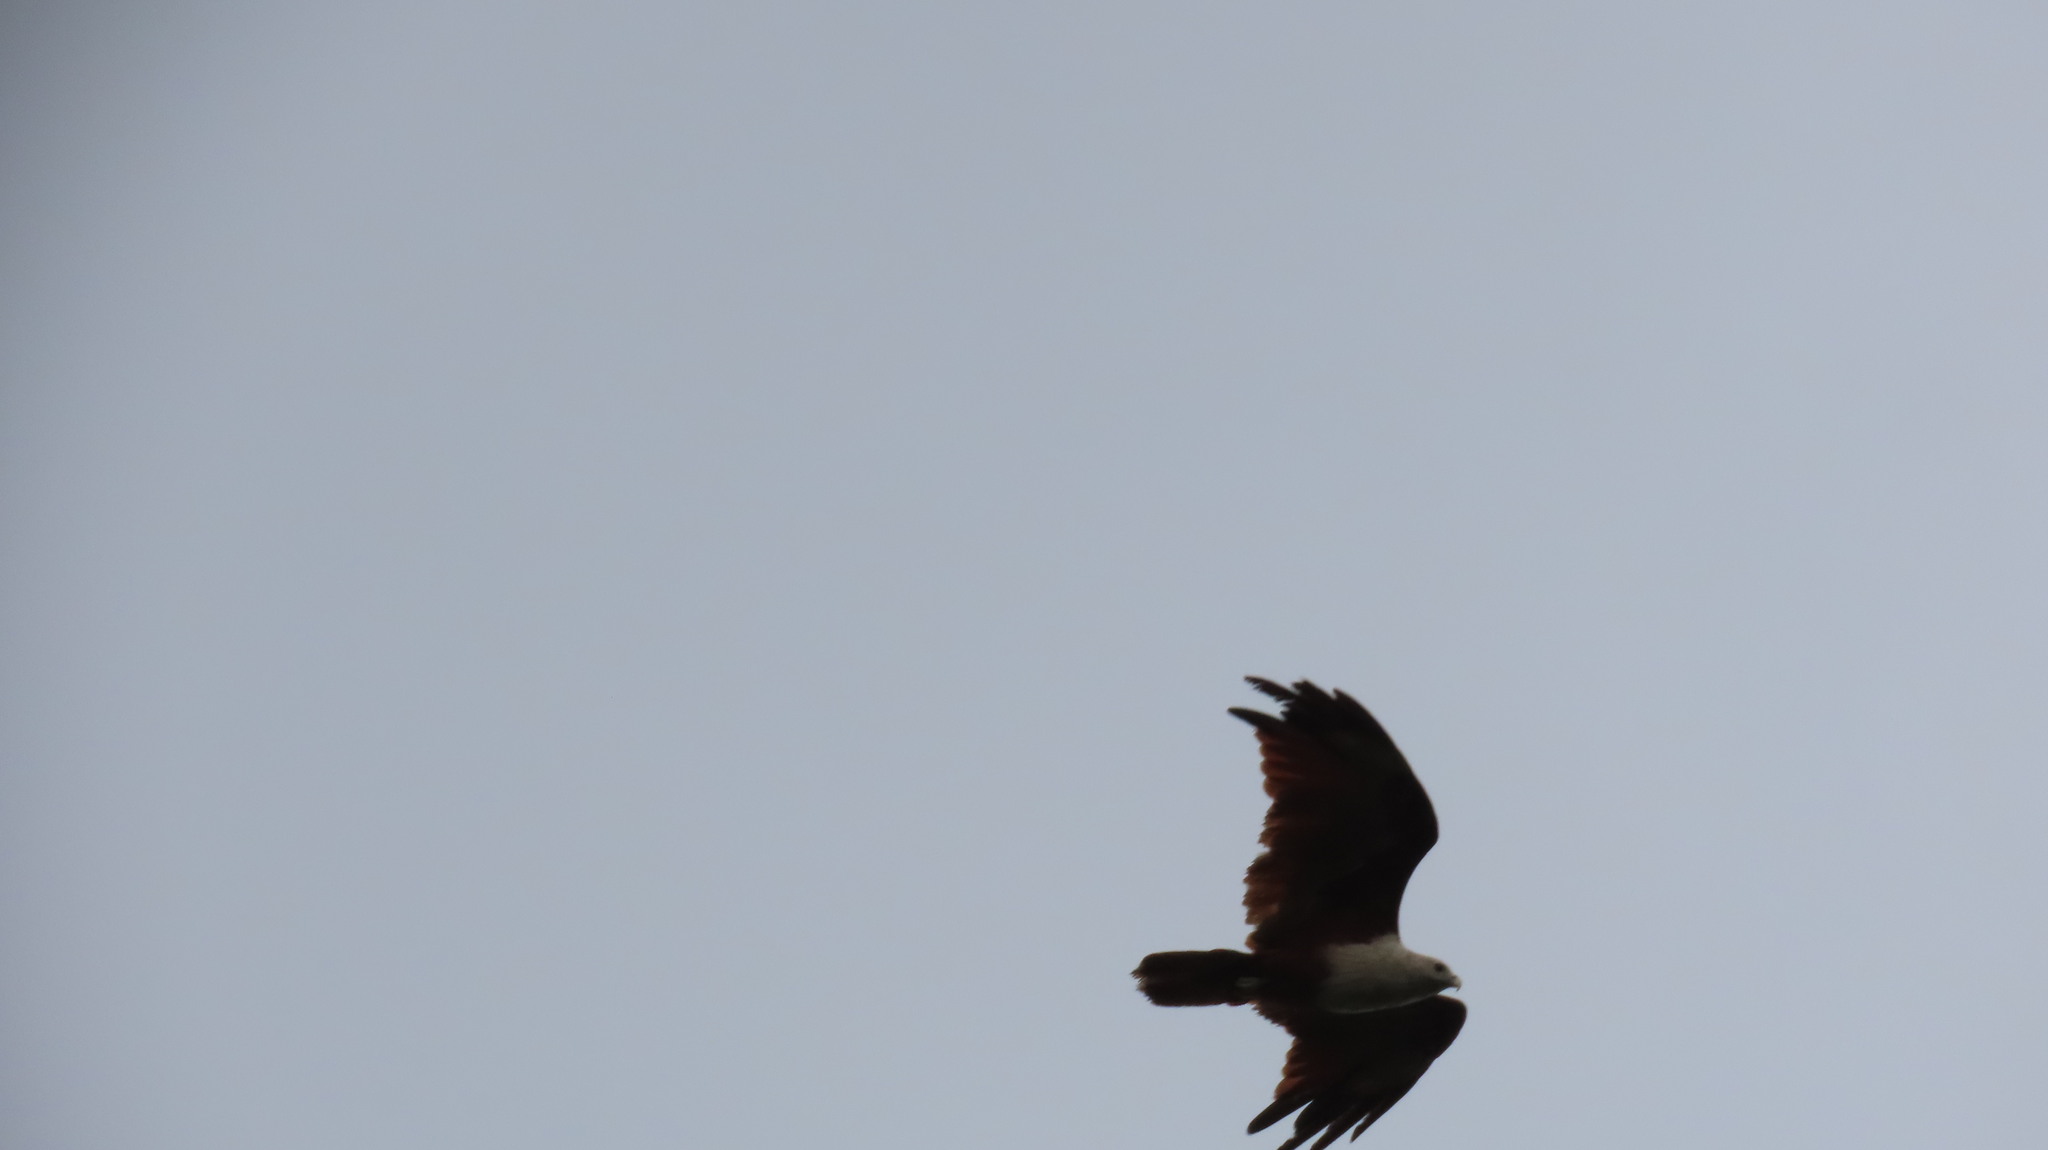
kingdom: Animalia
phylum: Chordata
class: Aves
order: Accipitriformes
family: Accipitridae
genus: Haliastur
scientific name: Haliastur indus
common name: Brahminy kite
